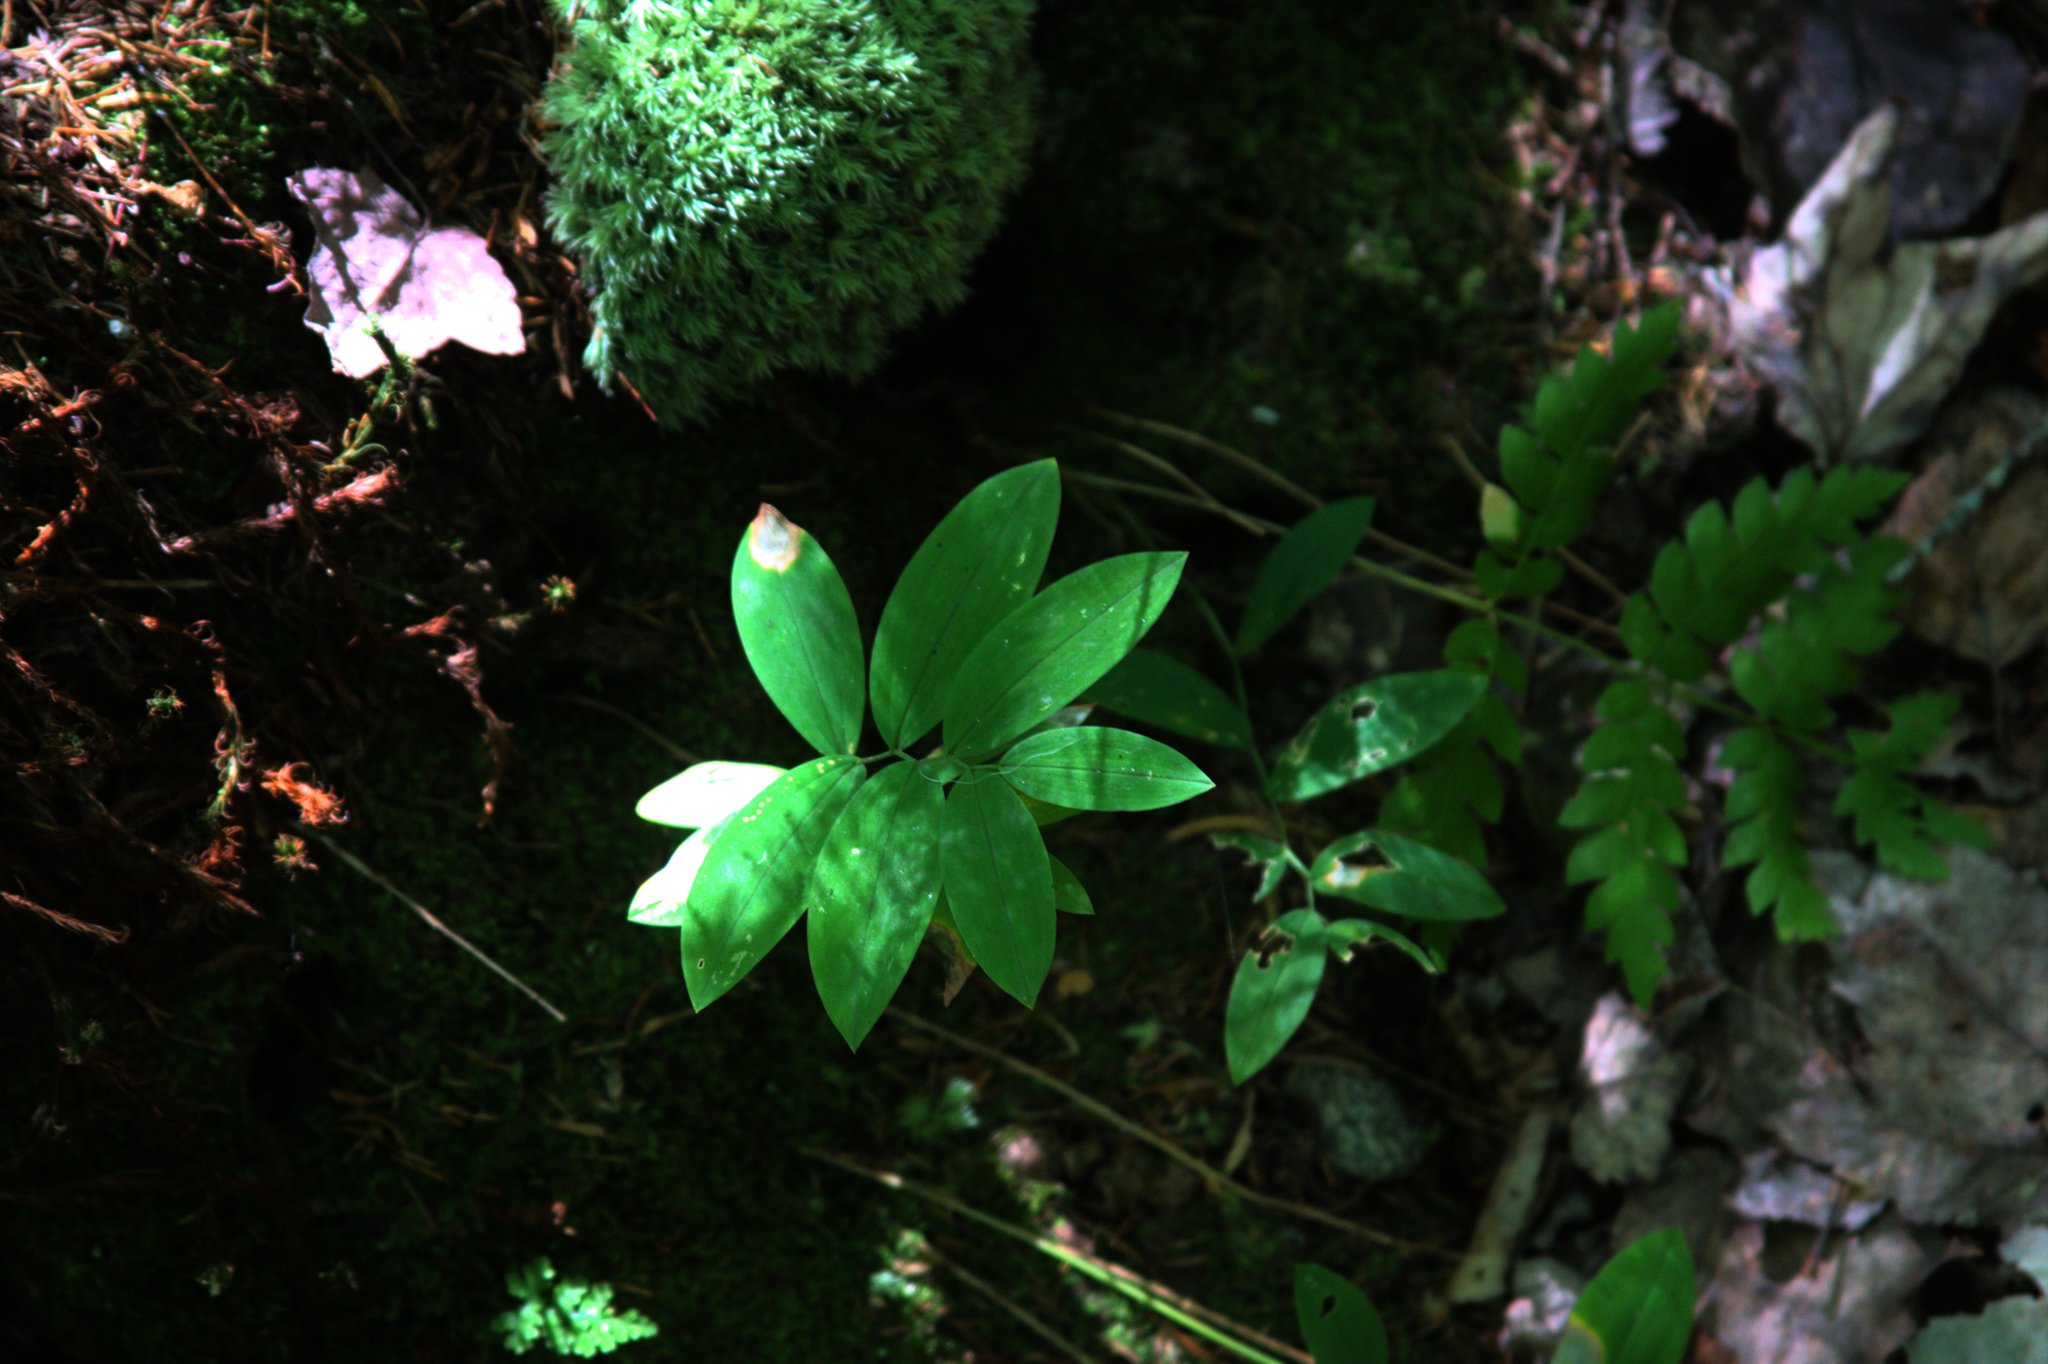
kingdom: Plantae
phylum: Tracheophyta
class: Liliopsida
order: Liliales
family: Colchicaceae
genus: Uvularia
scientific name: Uvularia sessilifolia
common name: Straw-lily
